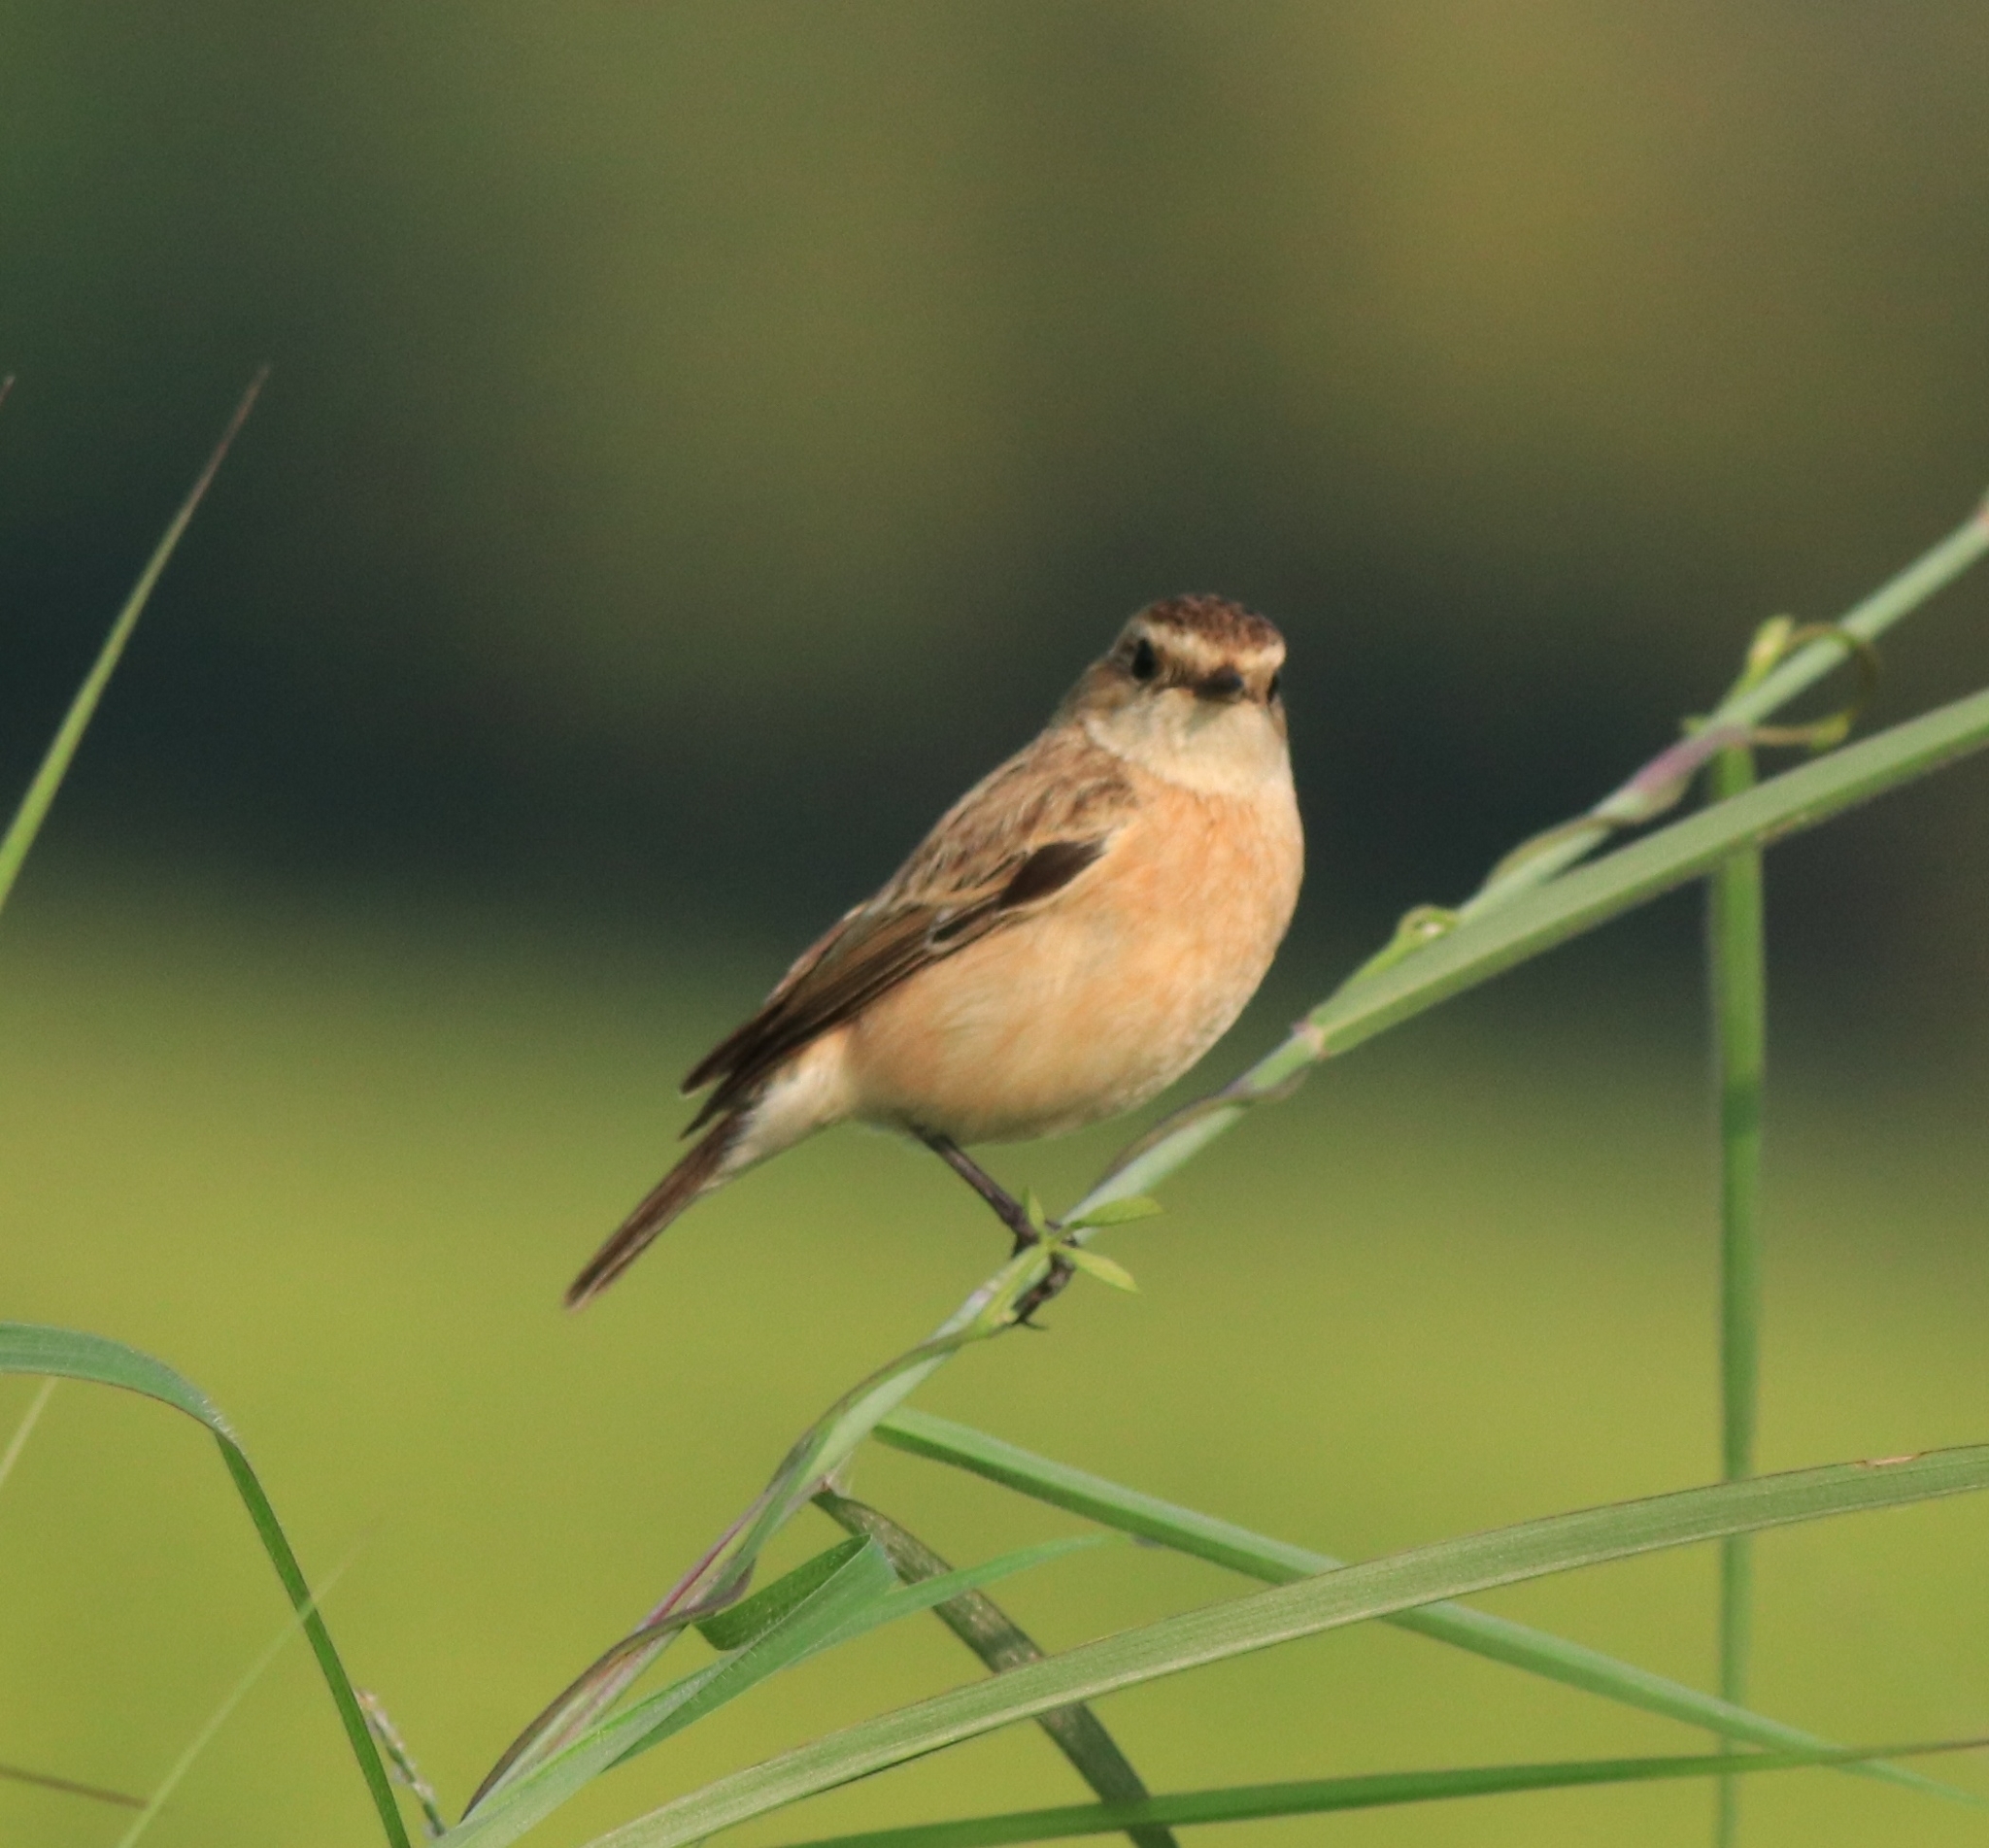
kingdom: Animalia
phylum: Chordata
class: Aves
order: Passeriformes
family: Muscicapidae
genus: Saxicola
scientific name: Saxicola maurus
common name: Siberian stonechat
